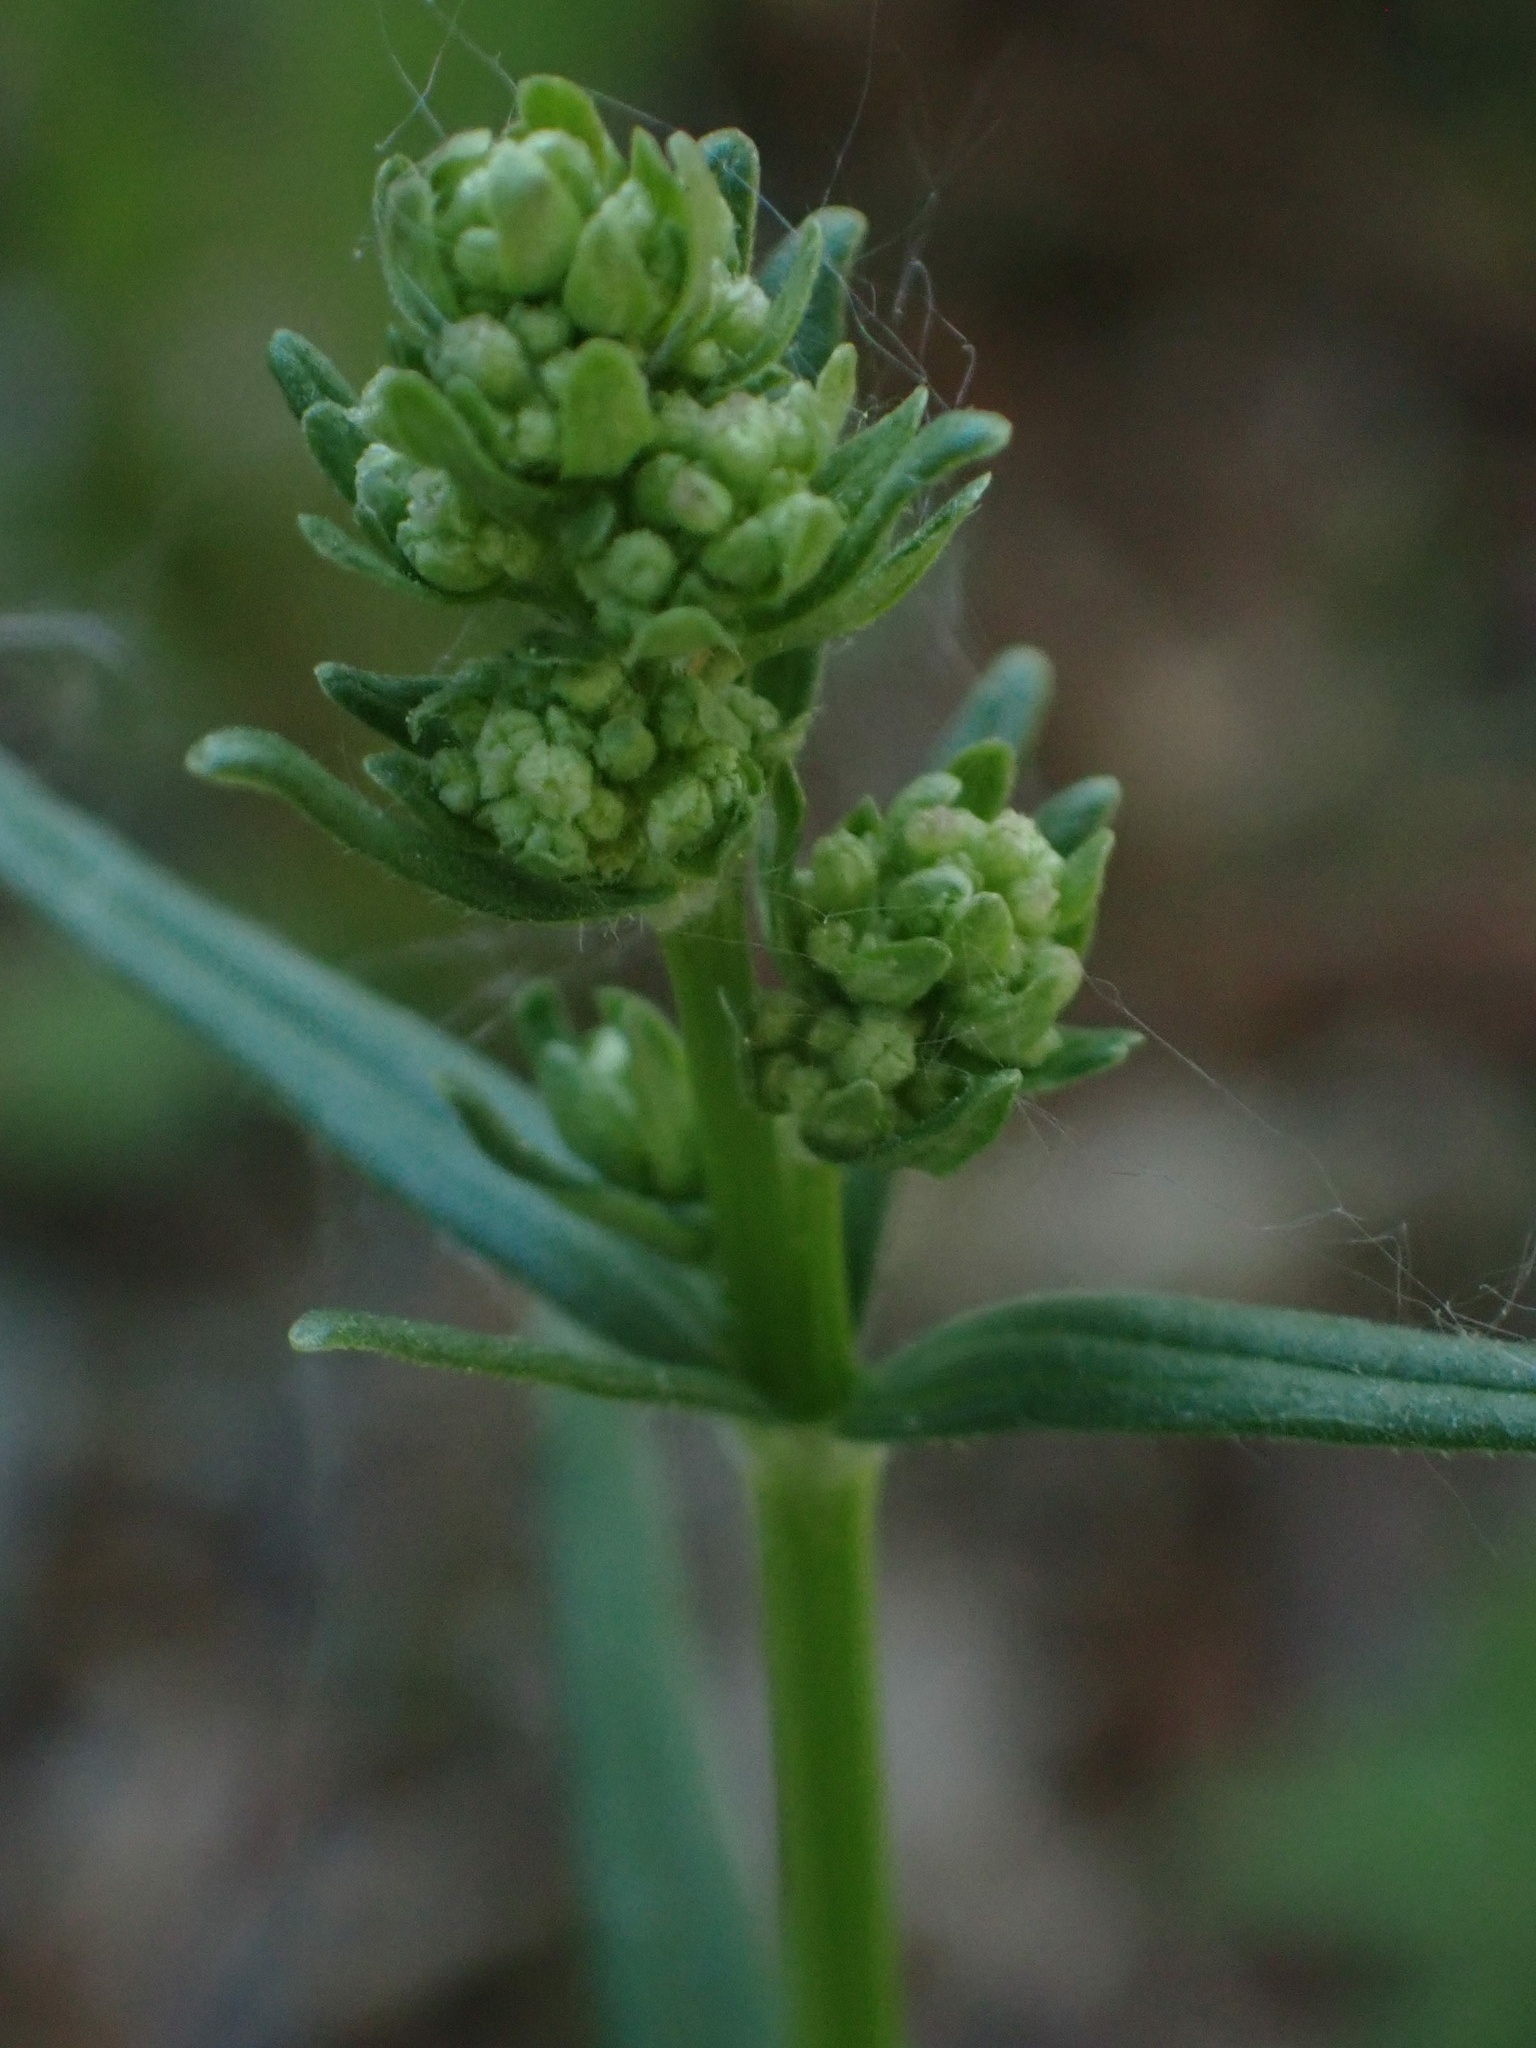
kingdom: Plantae
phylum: Tracheophyta
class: Magnoliopsida
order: Gentianales
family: Rubiaceae
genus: Galium
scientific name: Galium boreale
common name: Northern bedstraw
